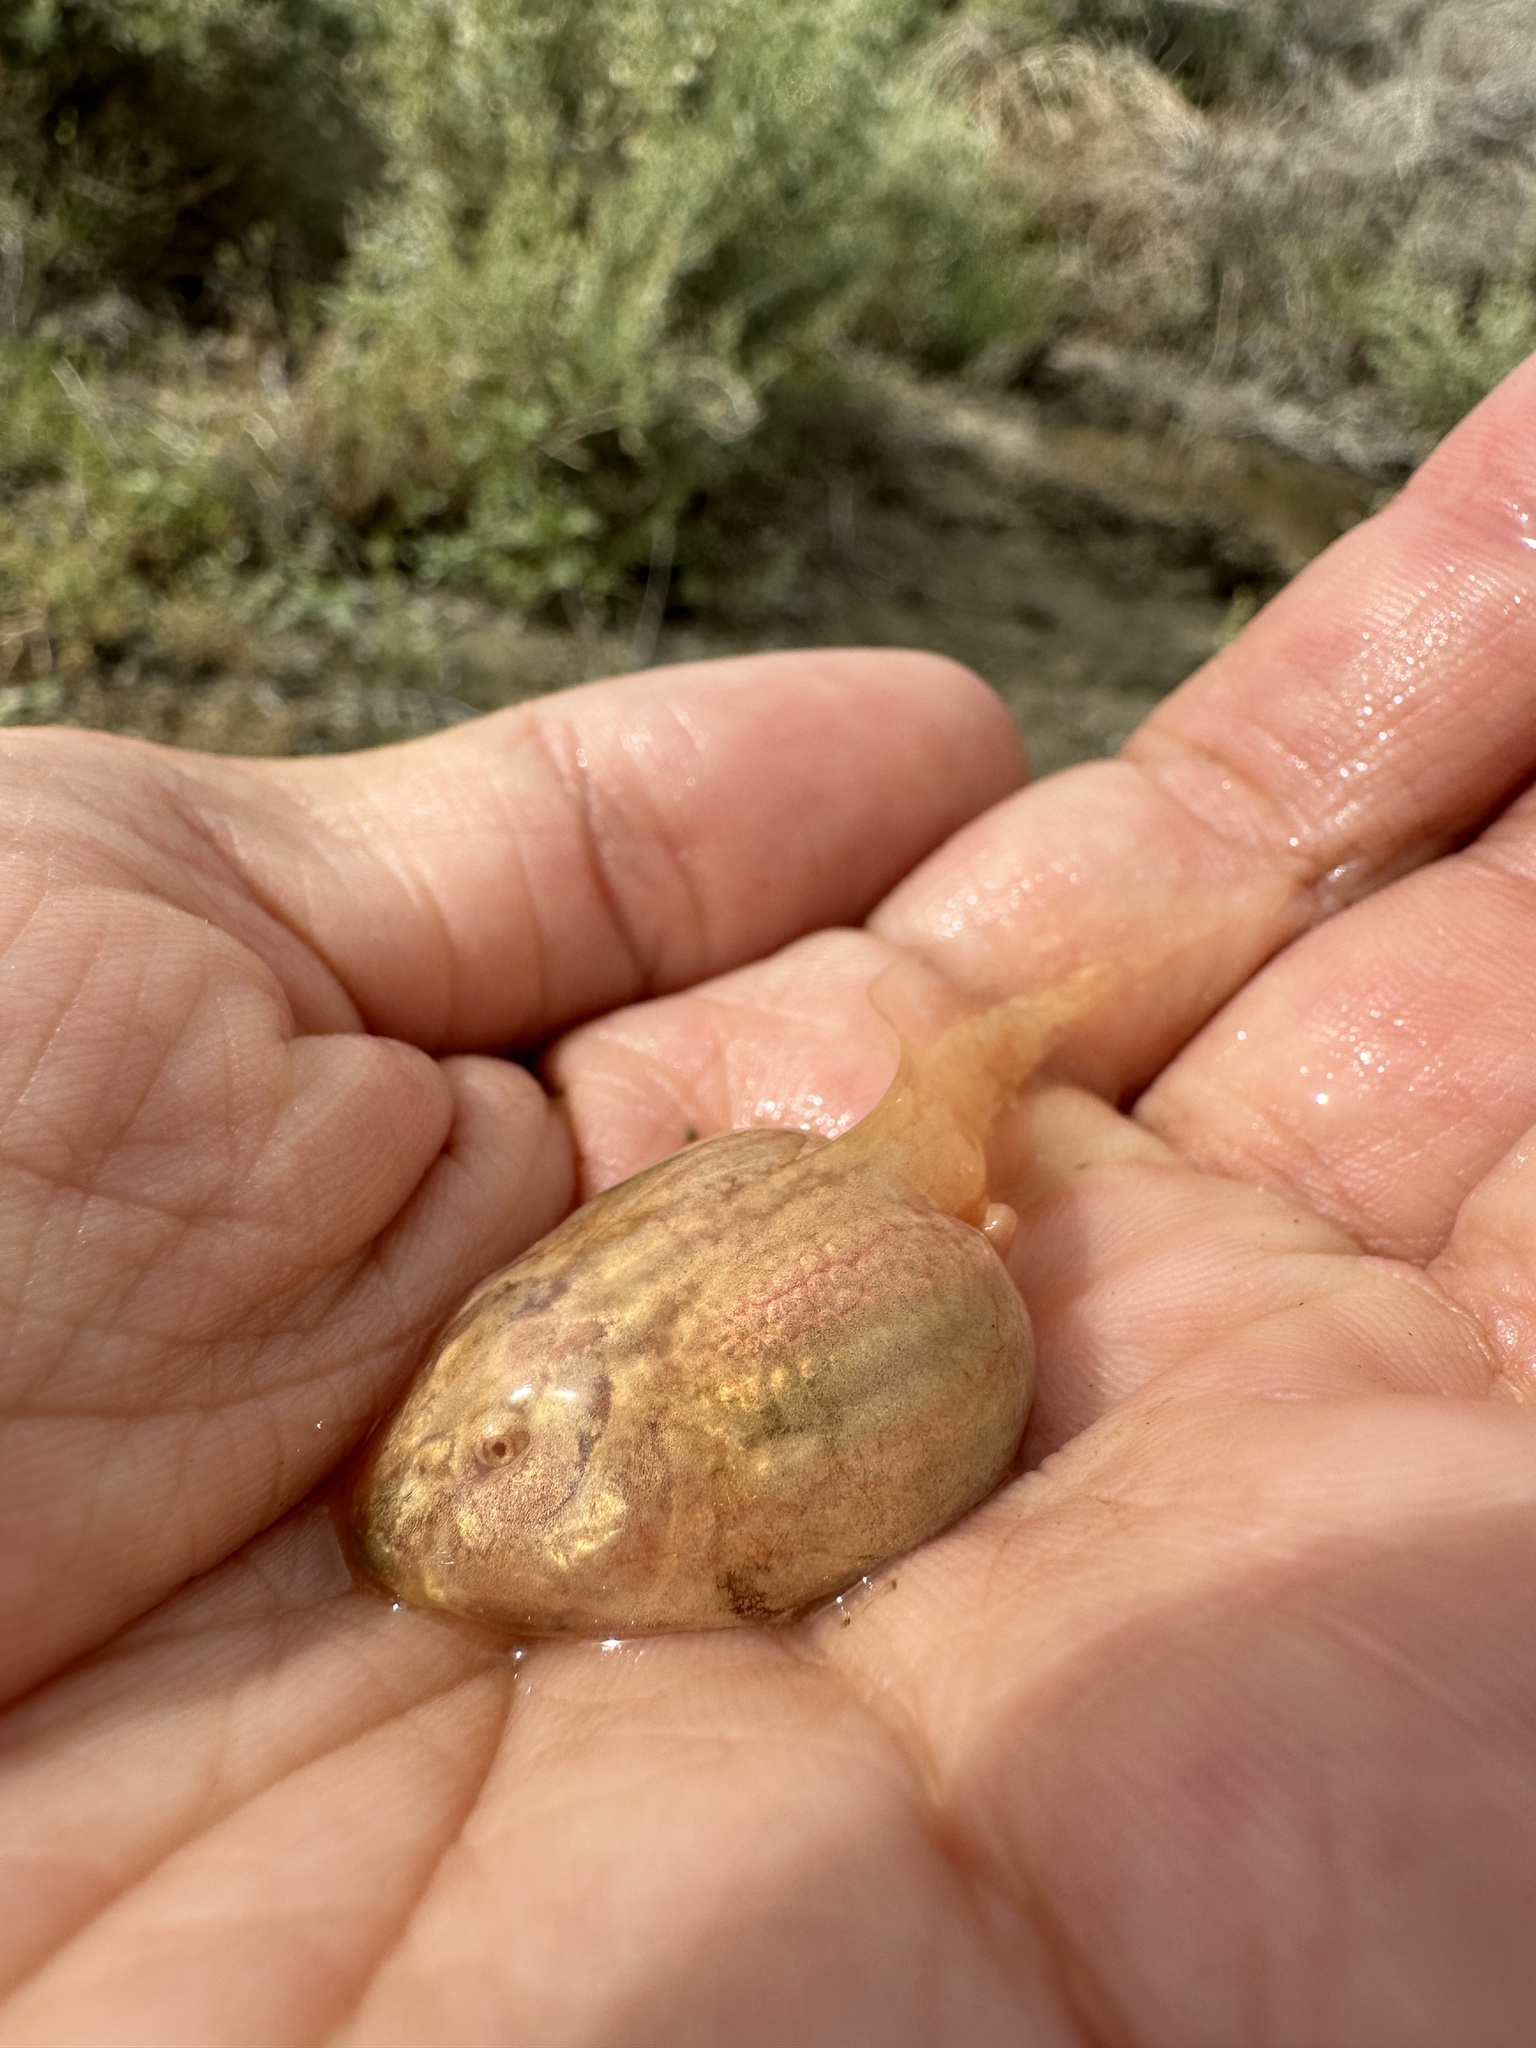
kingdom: Animalia
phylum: Chordata
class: Amphibia
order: Anura
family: Scaphiopodidae
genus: Spea
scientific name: Spea intermontana
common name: Great basin spadefoot
